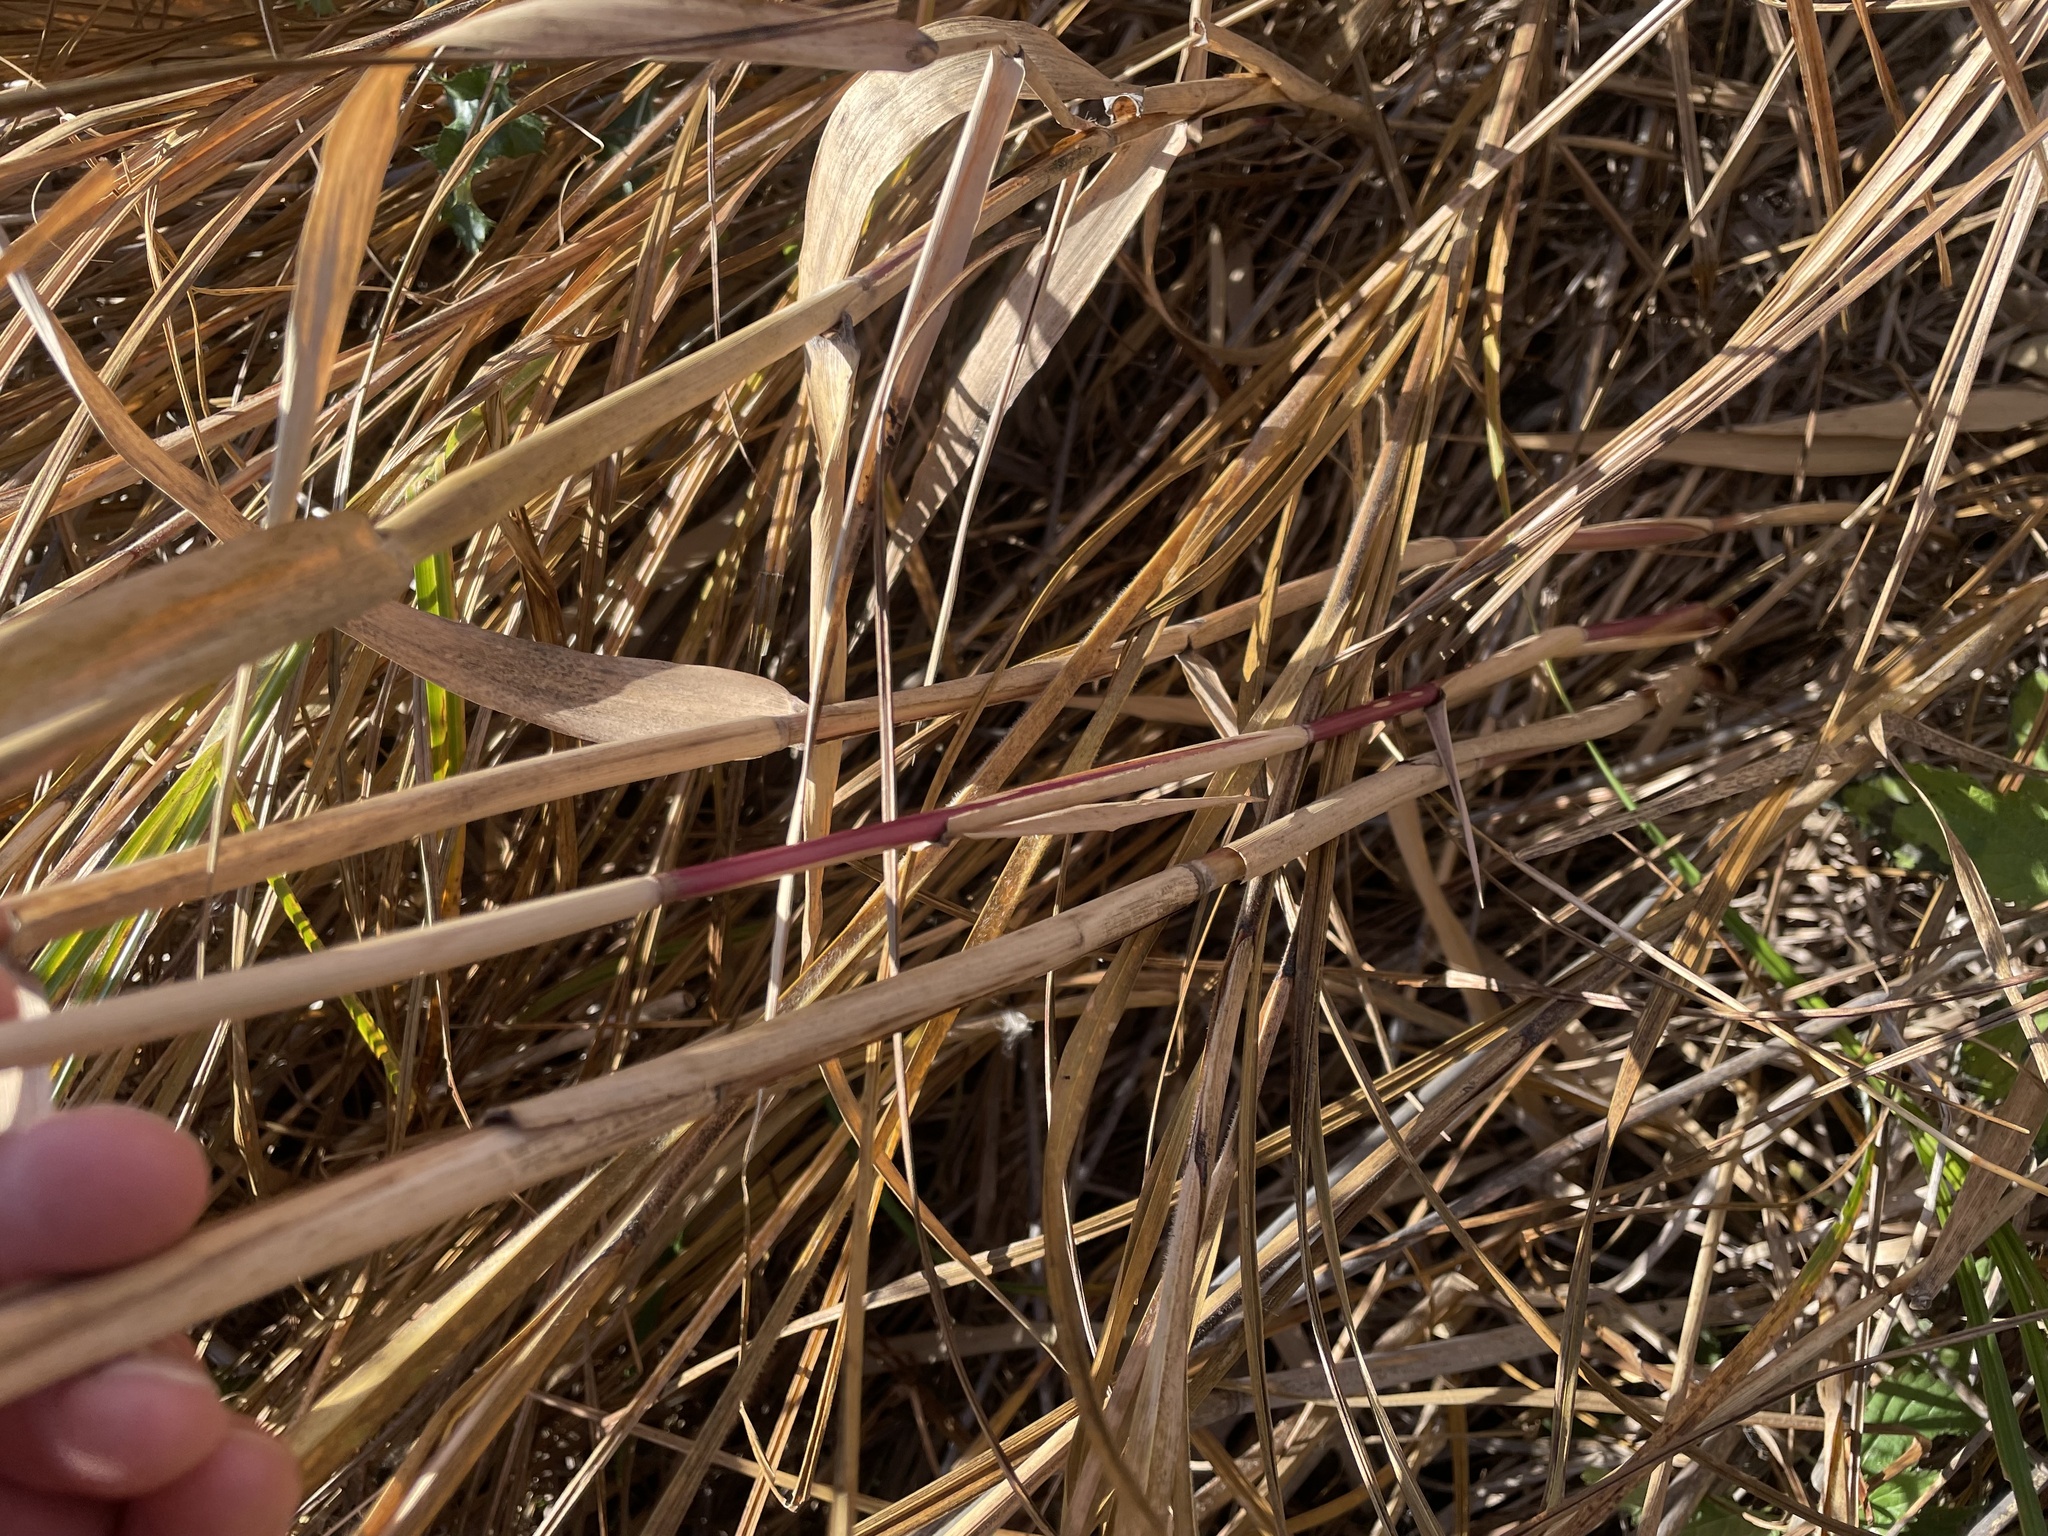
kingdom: Plantae
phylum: Tracheophyta
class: Liliopsida
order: Poales
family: Poaceae
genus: Phragmites
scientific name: Phragmites australis
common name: Common reed
